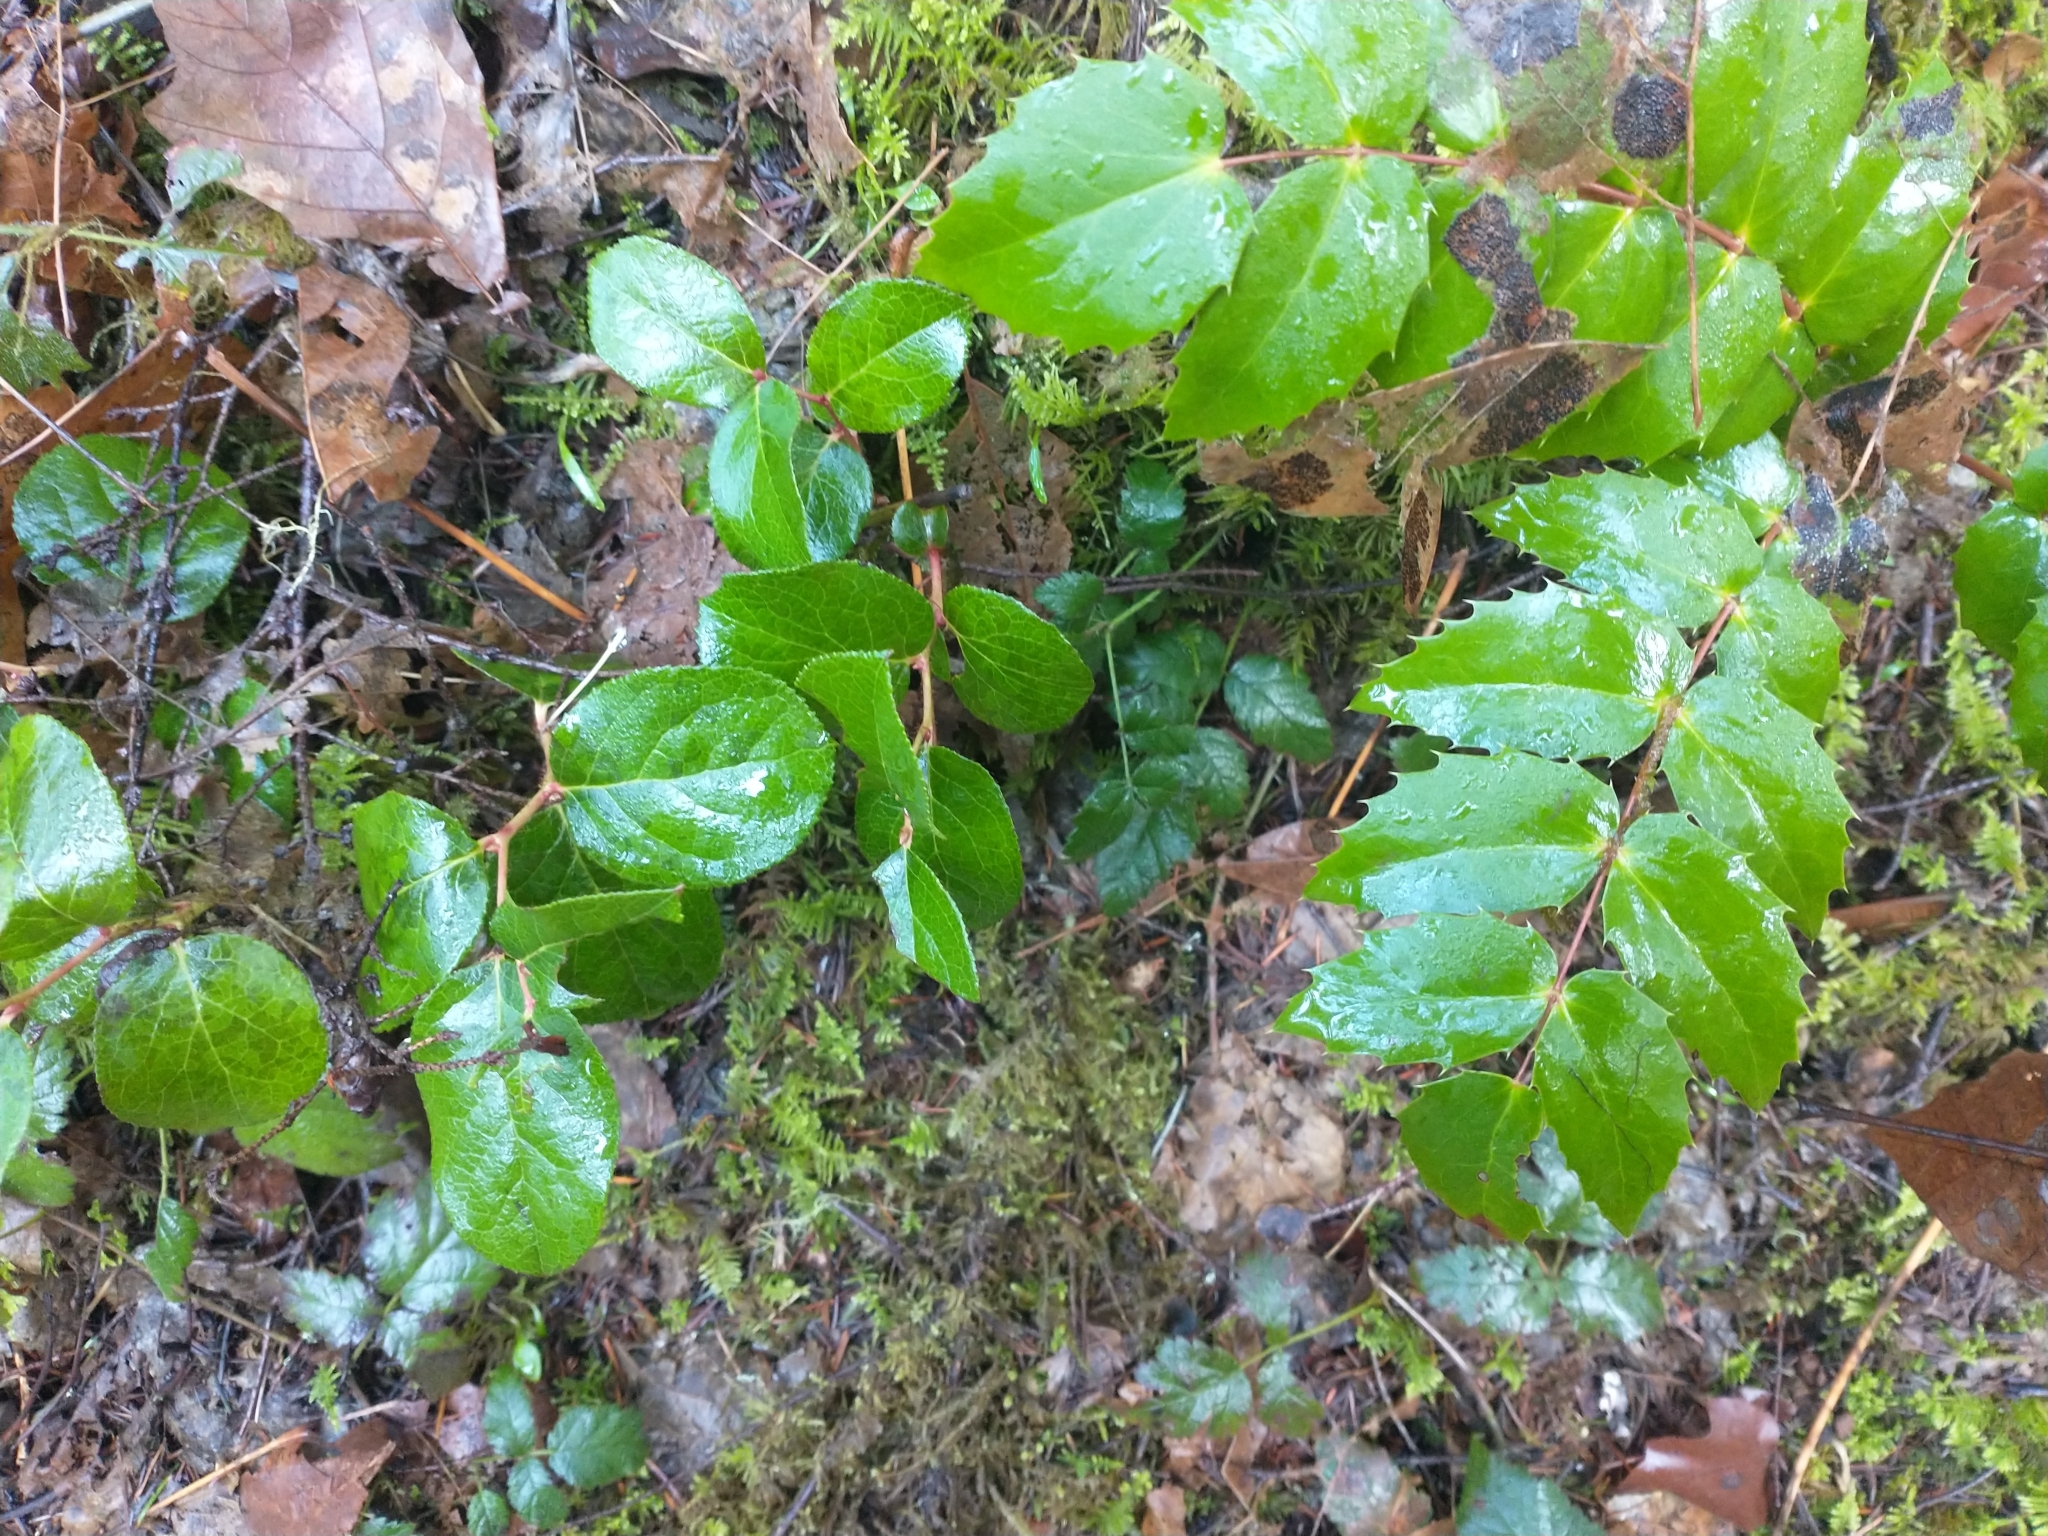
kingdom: Plantae
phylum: Tracheophyta
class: Magnoliopsida
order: Ranunculales
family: Berberidaceae
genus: Mahonia
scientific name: Mahonia nervosa
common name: Cascade oregon-grape
